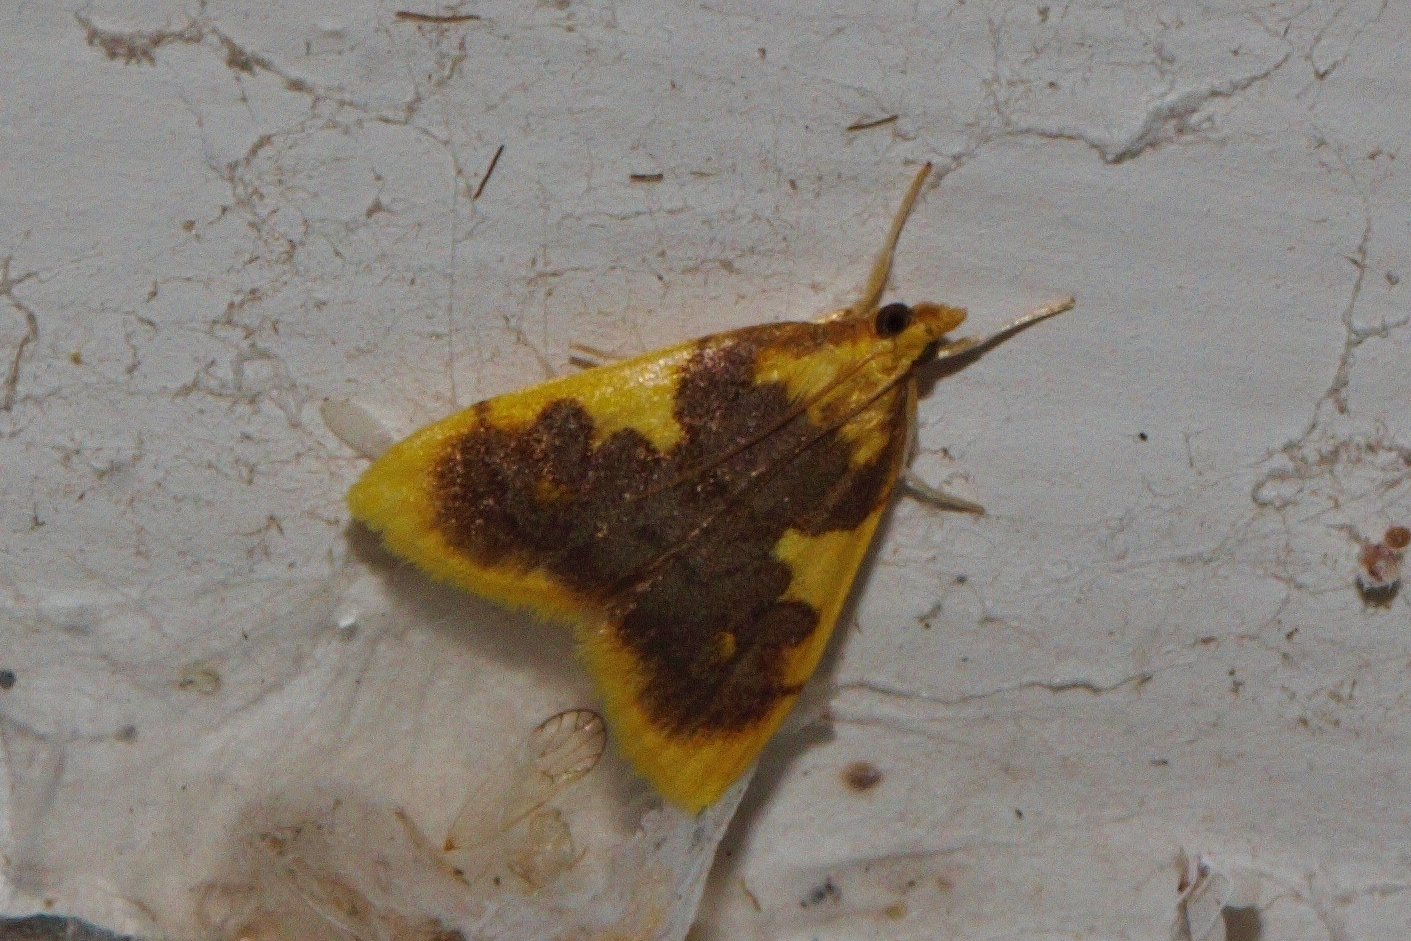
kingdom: Animalia
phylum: Arthropoda
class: Insecta
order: Lepidoptera
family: Crambidae
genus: Thliptoceras
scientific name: Thliptoceras xanthocraspia
